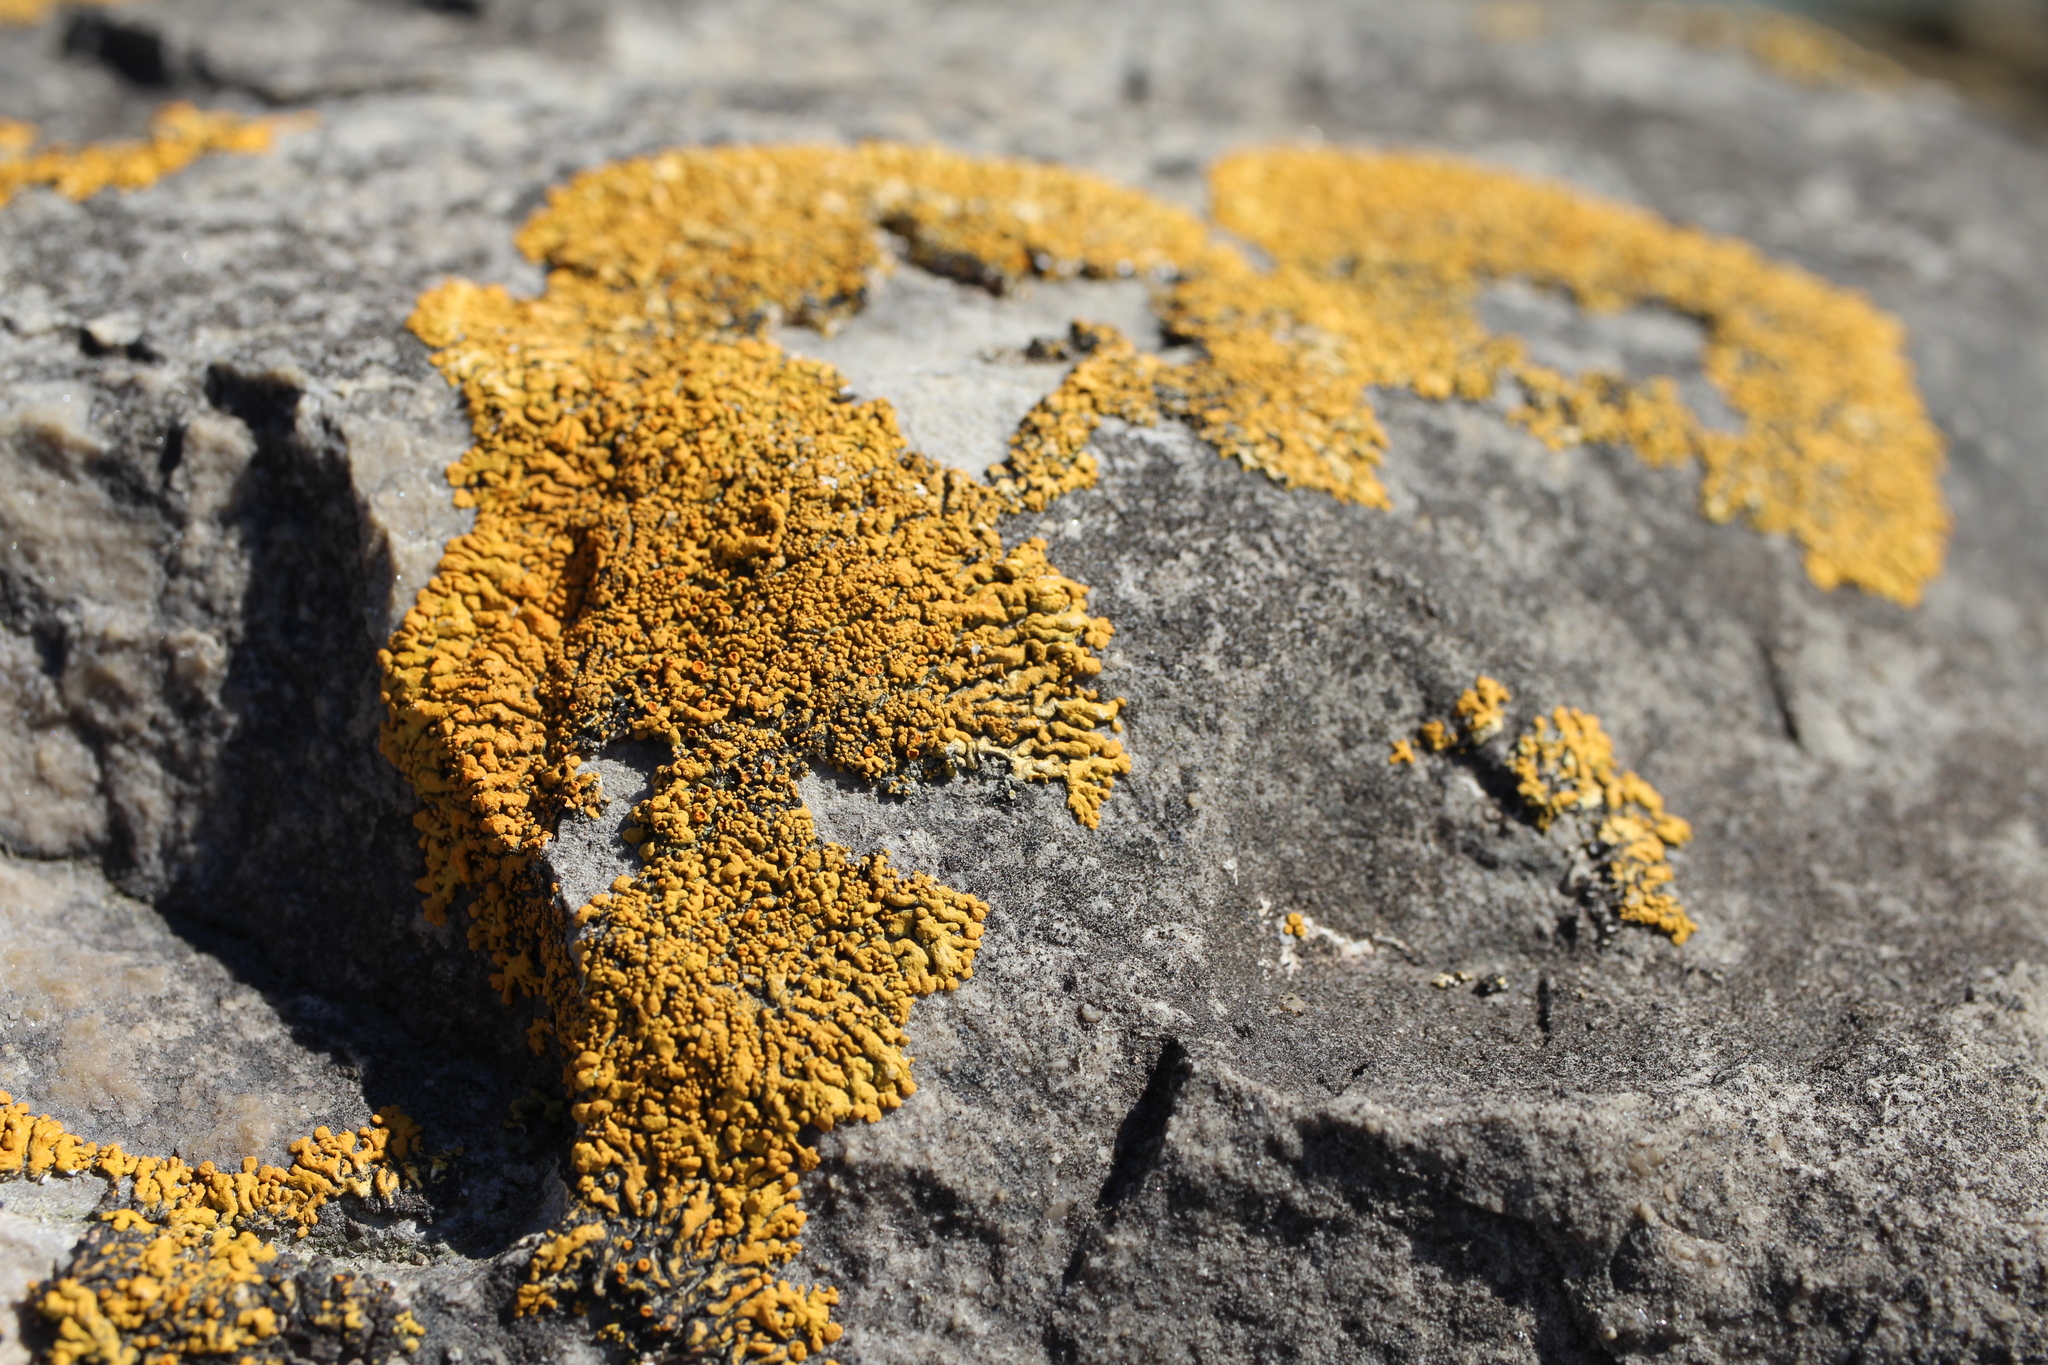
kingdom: Fungi
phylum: Ascomycota
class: Lecanoromycetes
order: Teloschistales
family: Teloschistaceae
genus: Xanthoria
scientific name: Xanthoria elegans
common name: Elegant sunburst lichen
